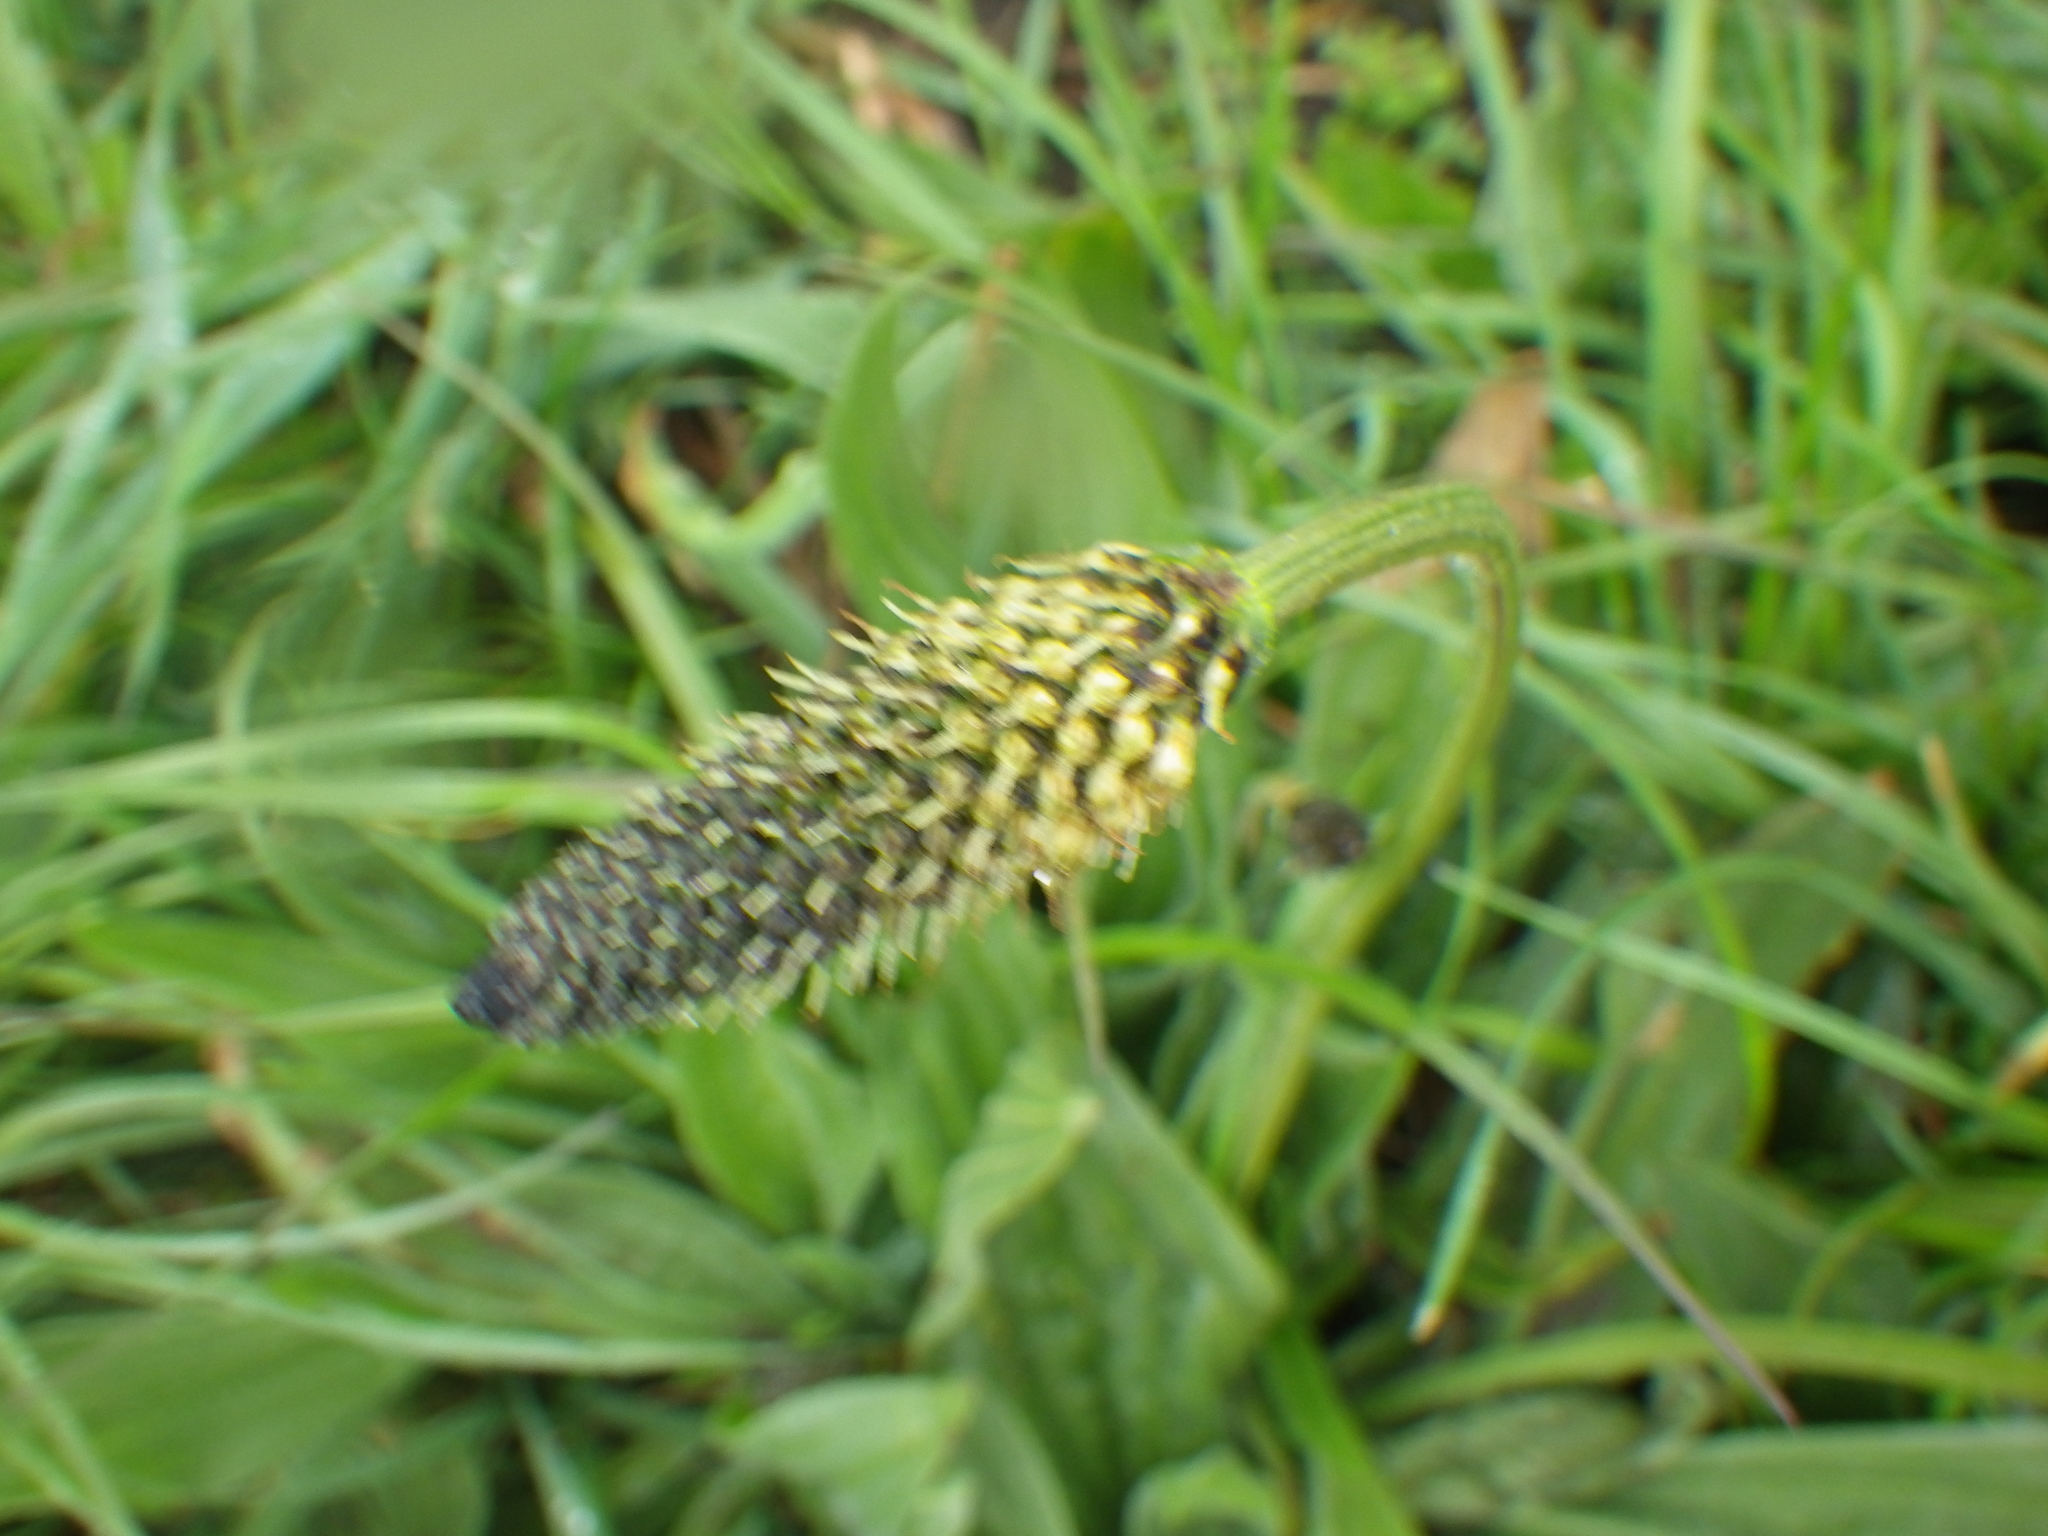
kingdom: Plantae
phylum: Tracheophyta
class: Magnoliopsida
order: Lamiales
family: Plantaginaceae
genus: Plantago
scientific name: Plantago lanceolata
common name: Ribwort plantain
